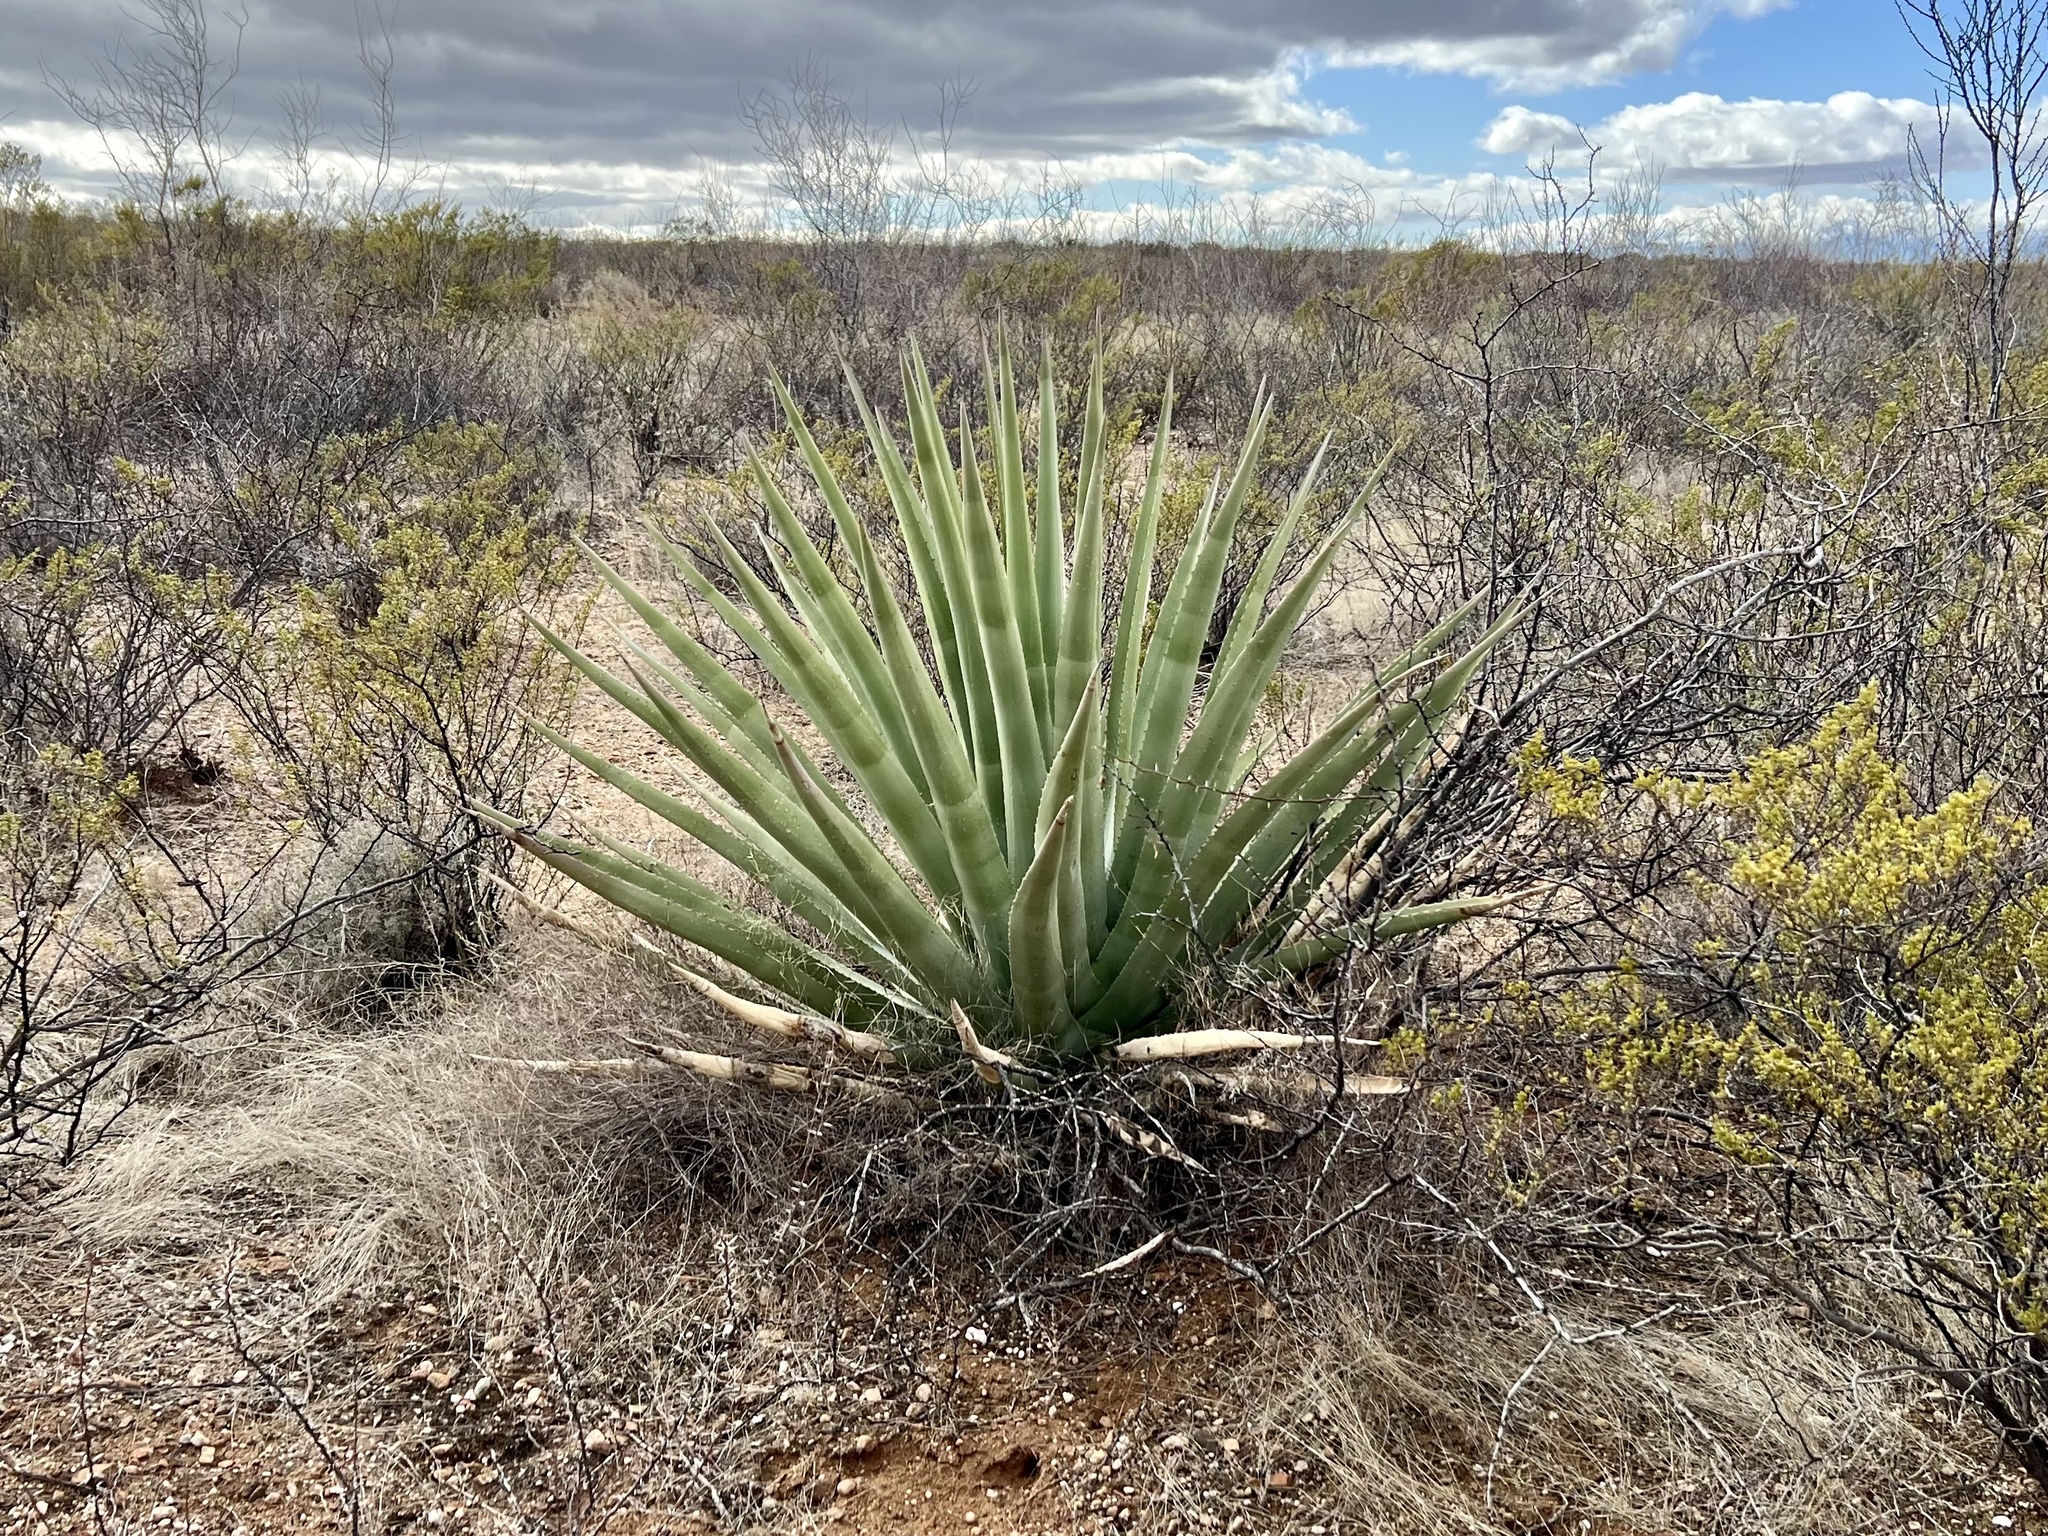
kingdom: Plantae
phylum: Tracheophyta
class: Liliopsida
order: Asparagales
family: Asparagaceae
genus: Agave
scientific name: Agave palmeri
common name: Palmer agave
